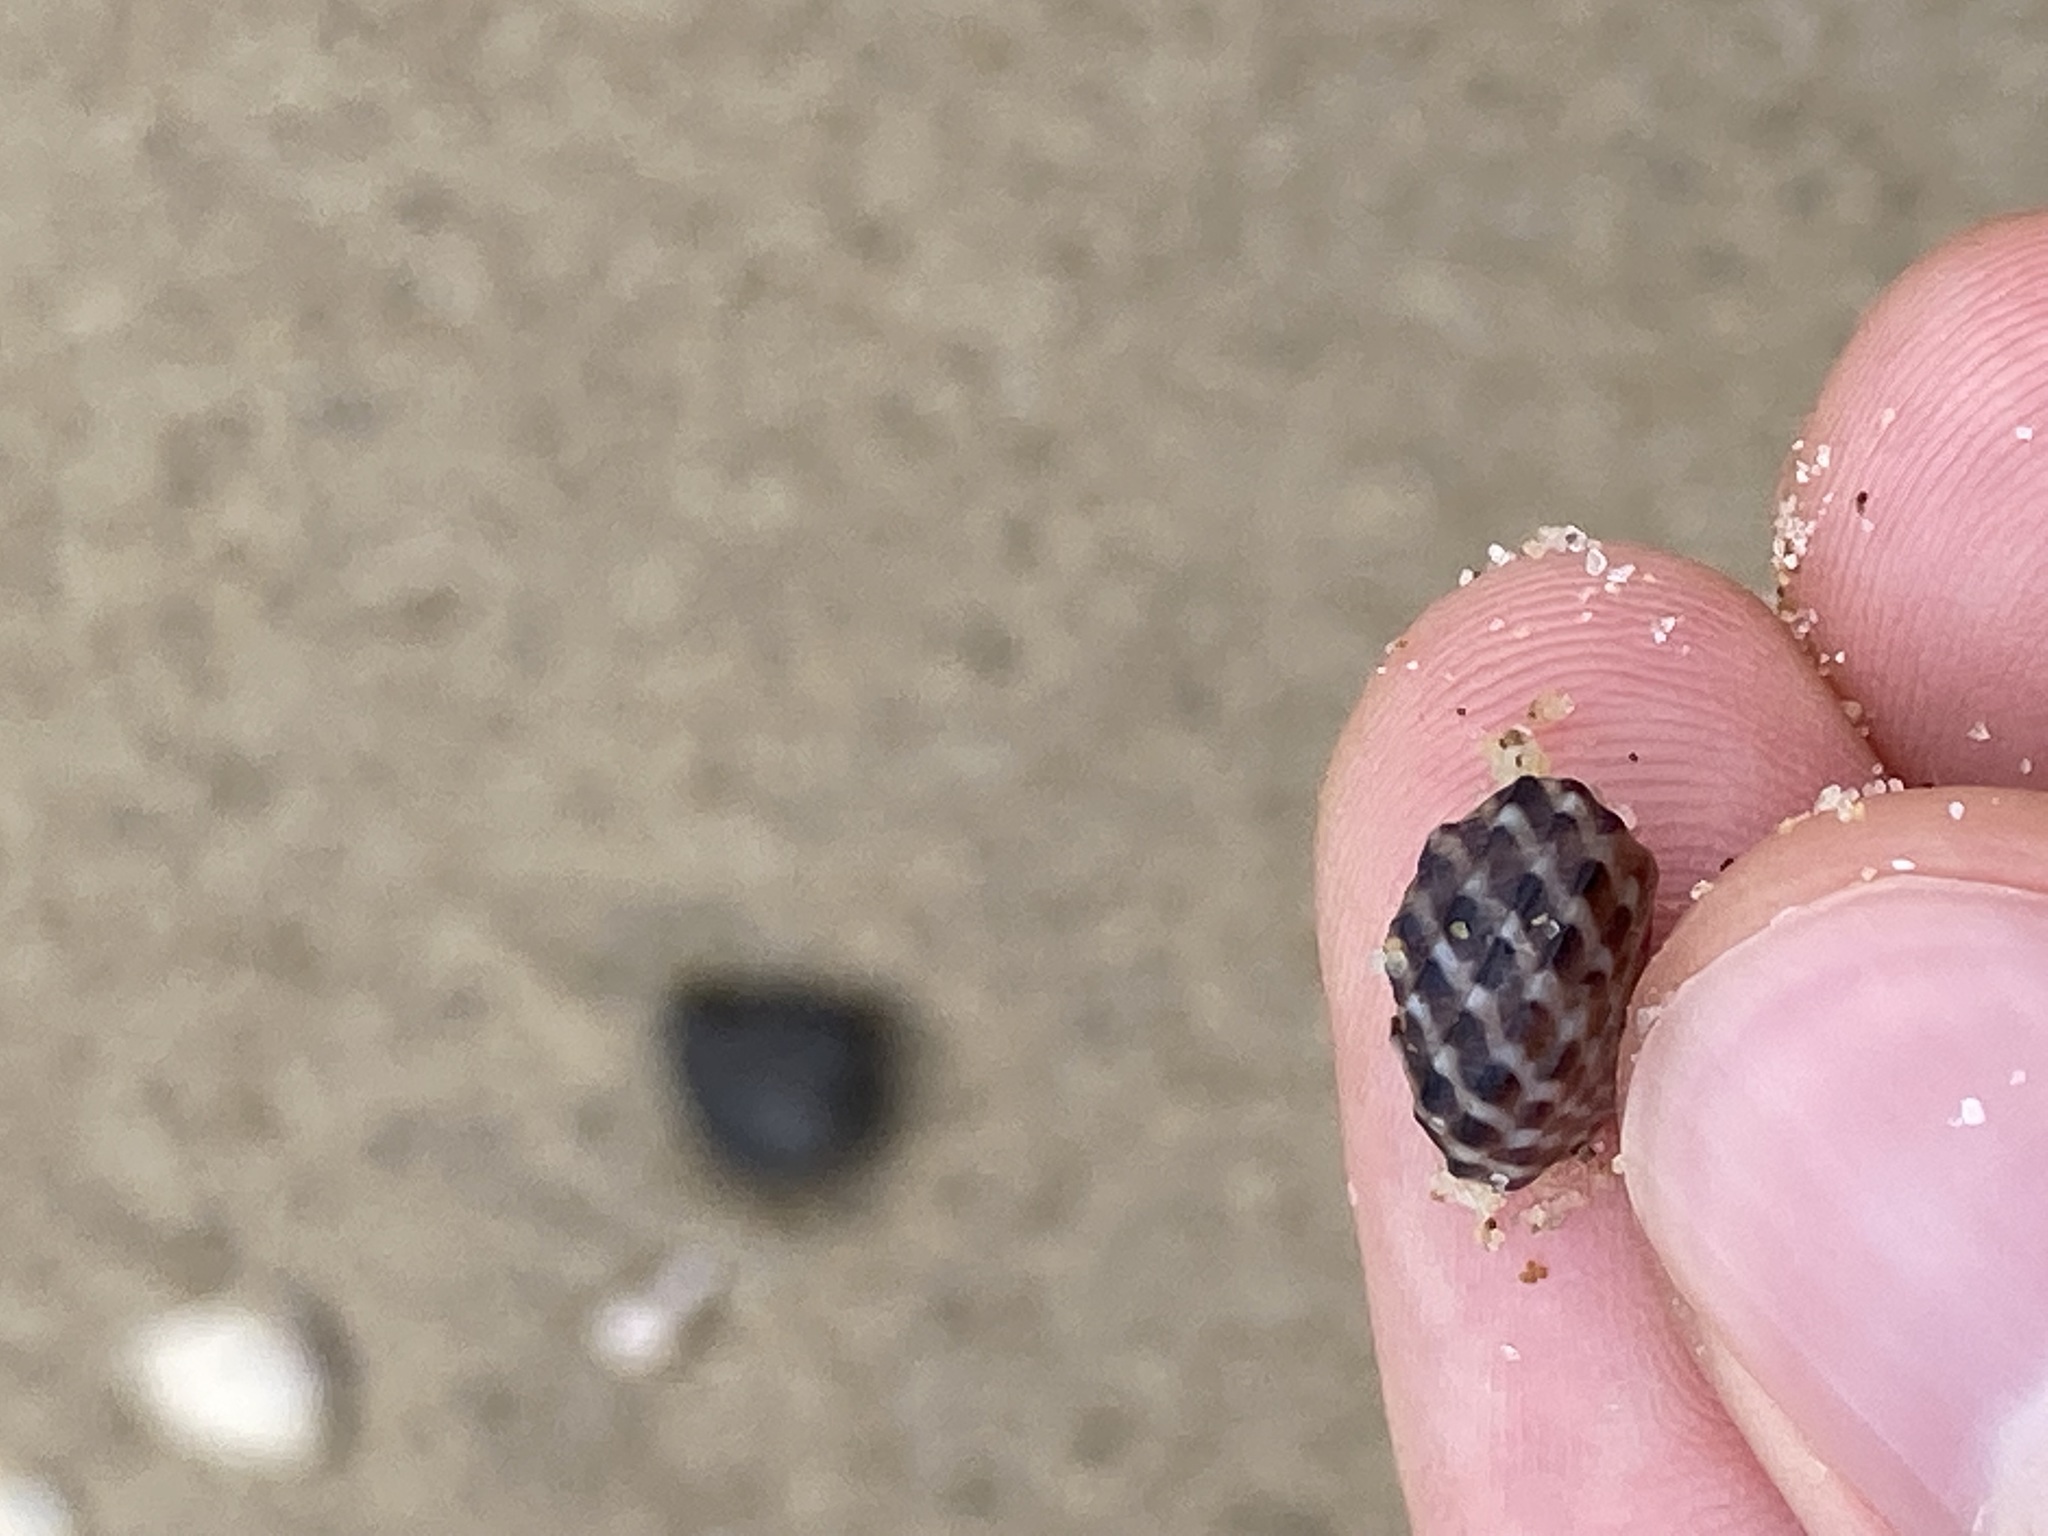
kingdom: Animalia
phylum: Mollusca
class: Gastropoda
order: Trochida
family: Trochidae
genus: Austrocochlea
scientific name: Austrocochlea porcata
